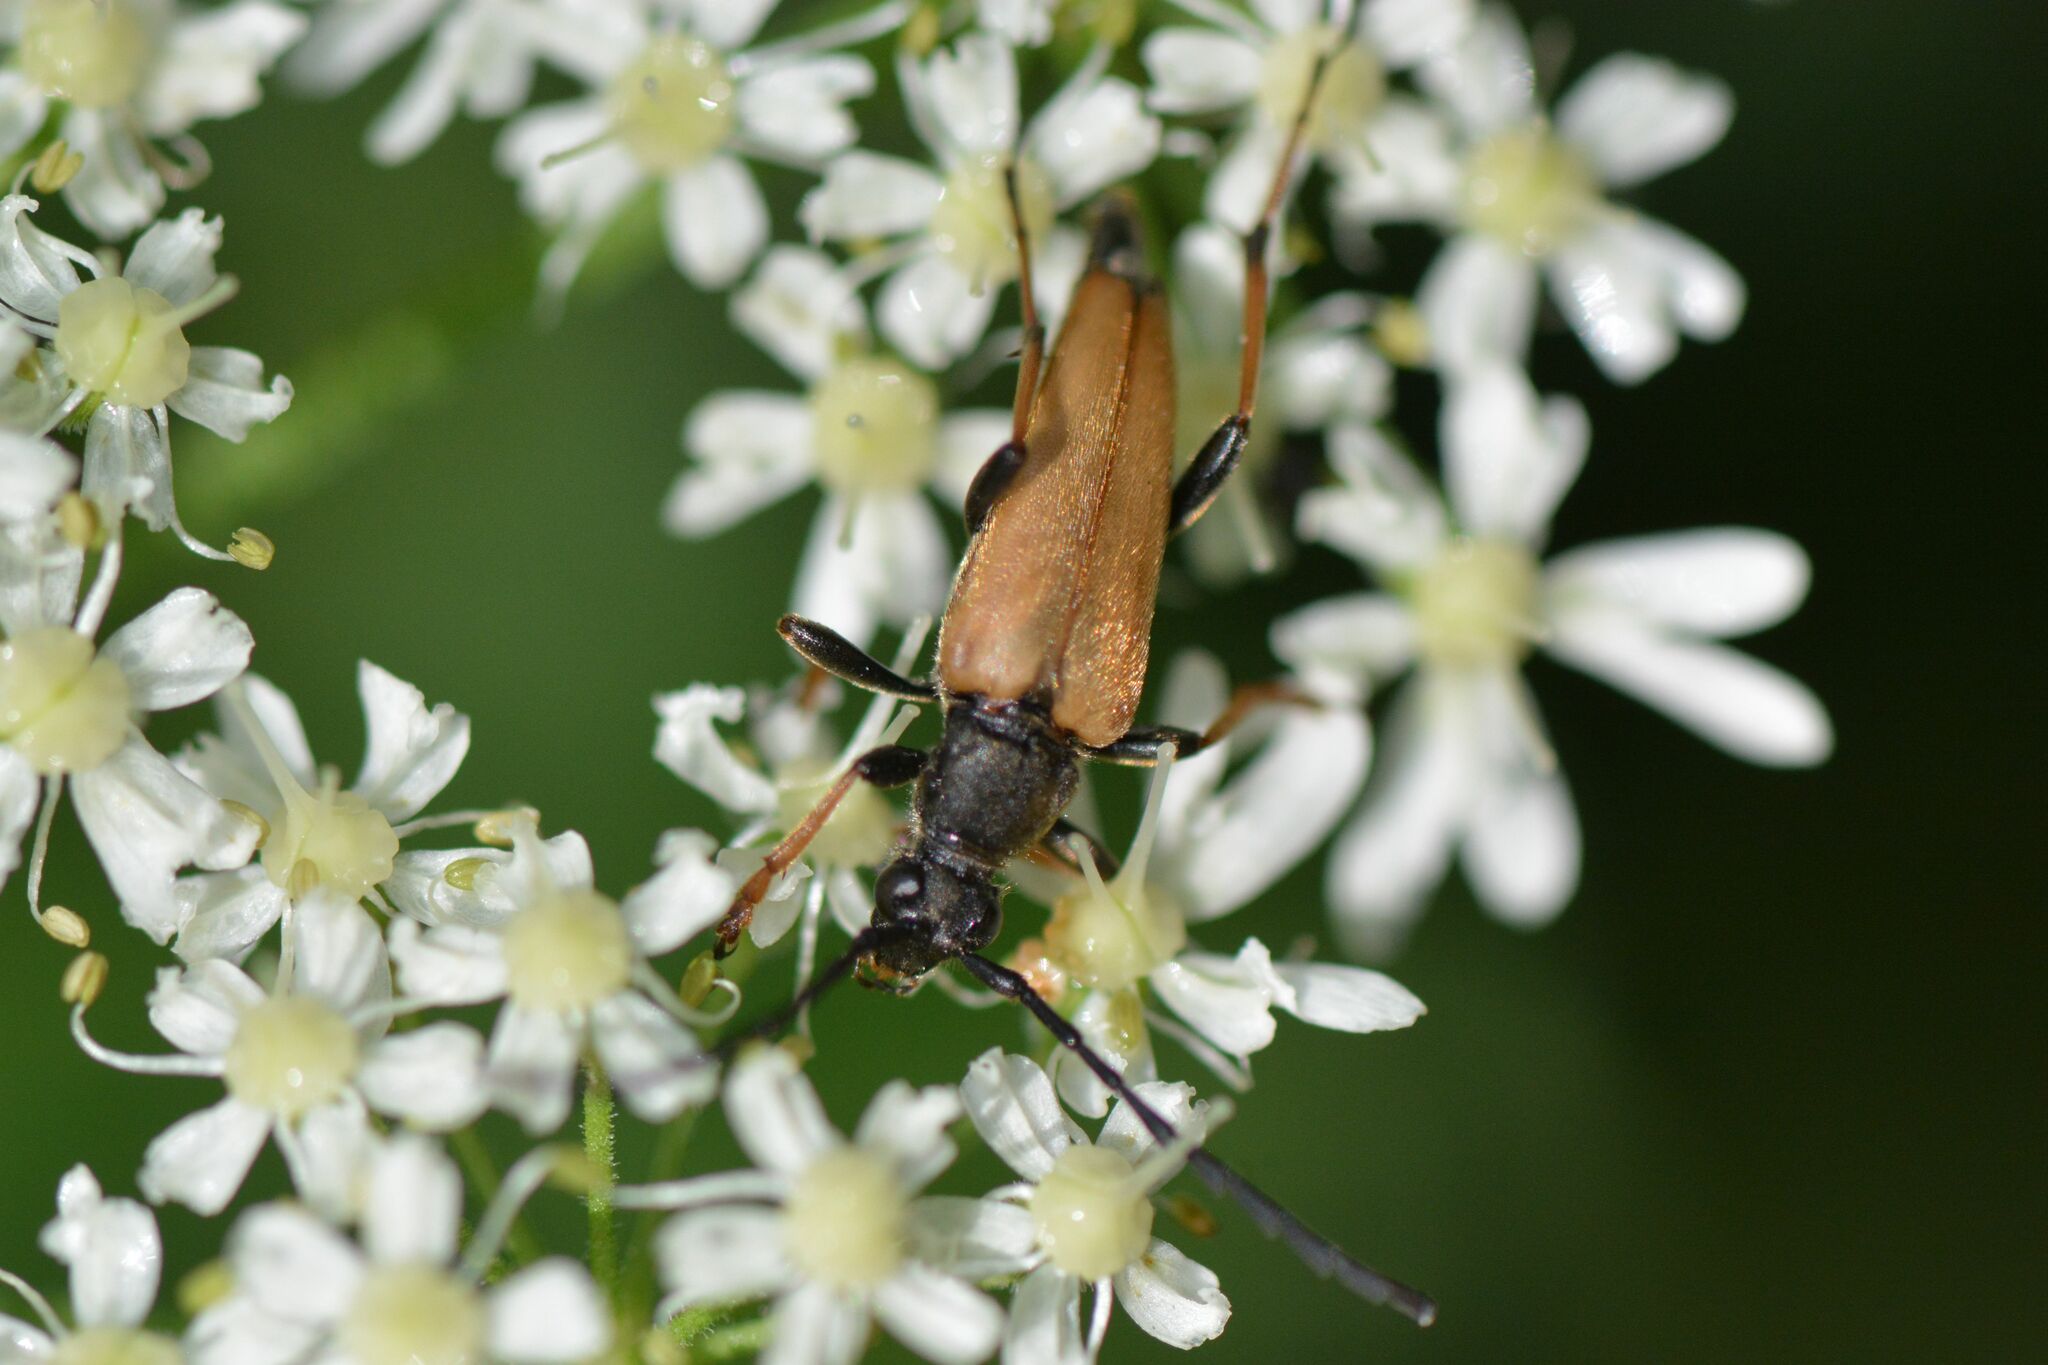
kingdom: Animalia
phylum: Arthropoda
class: Insecta
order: Coleoptera
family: Cerambycidae
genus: Stictoleptura
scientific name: Stictoleptura rubra
